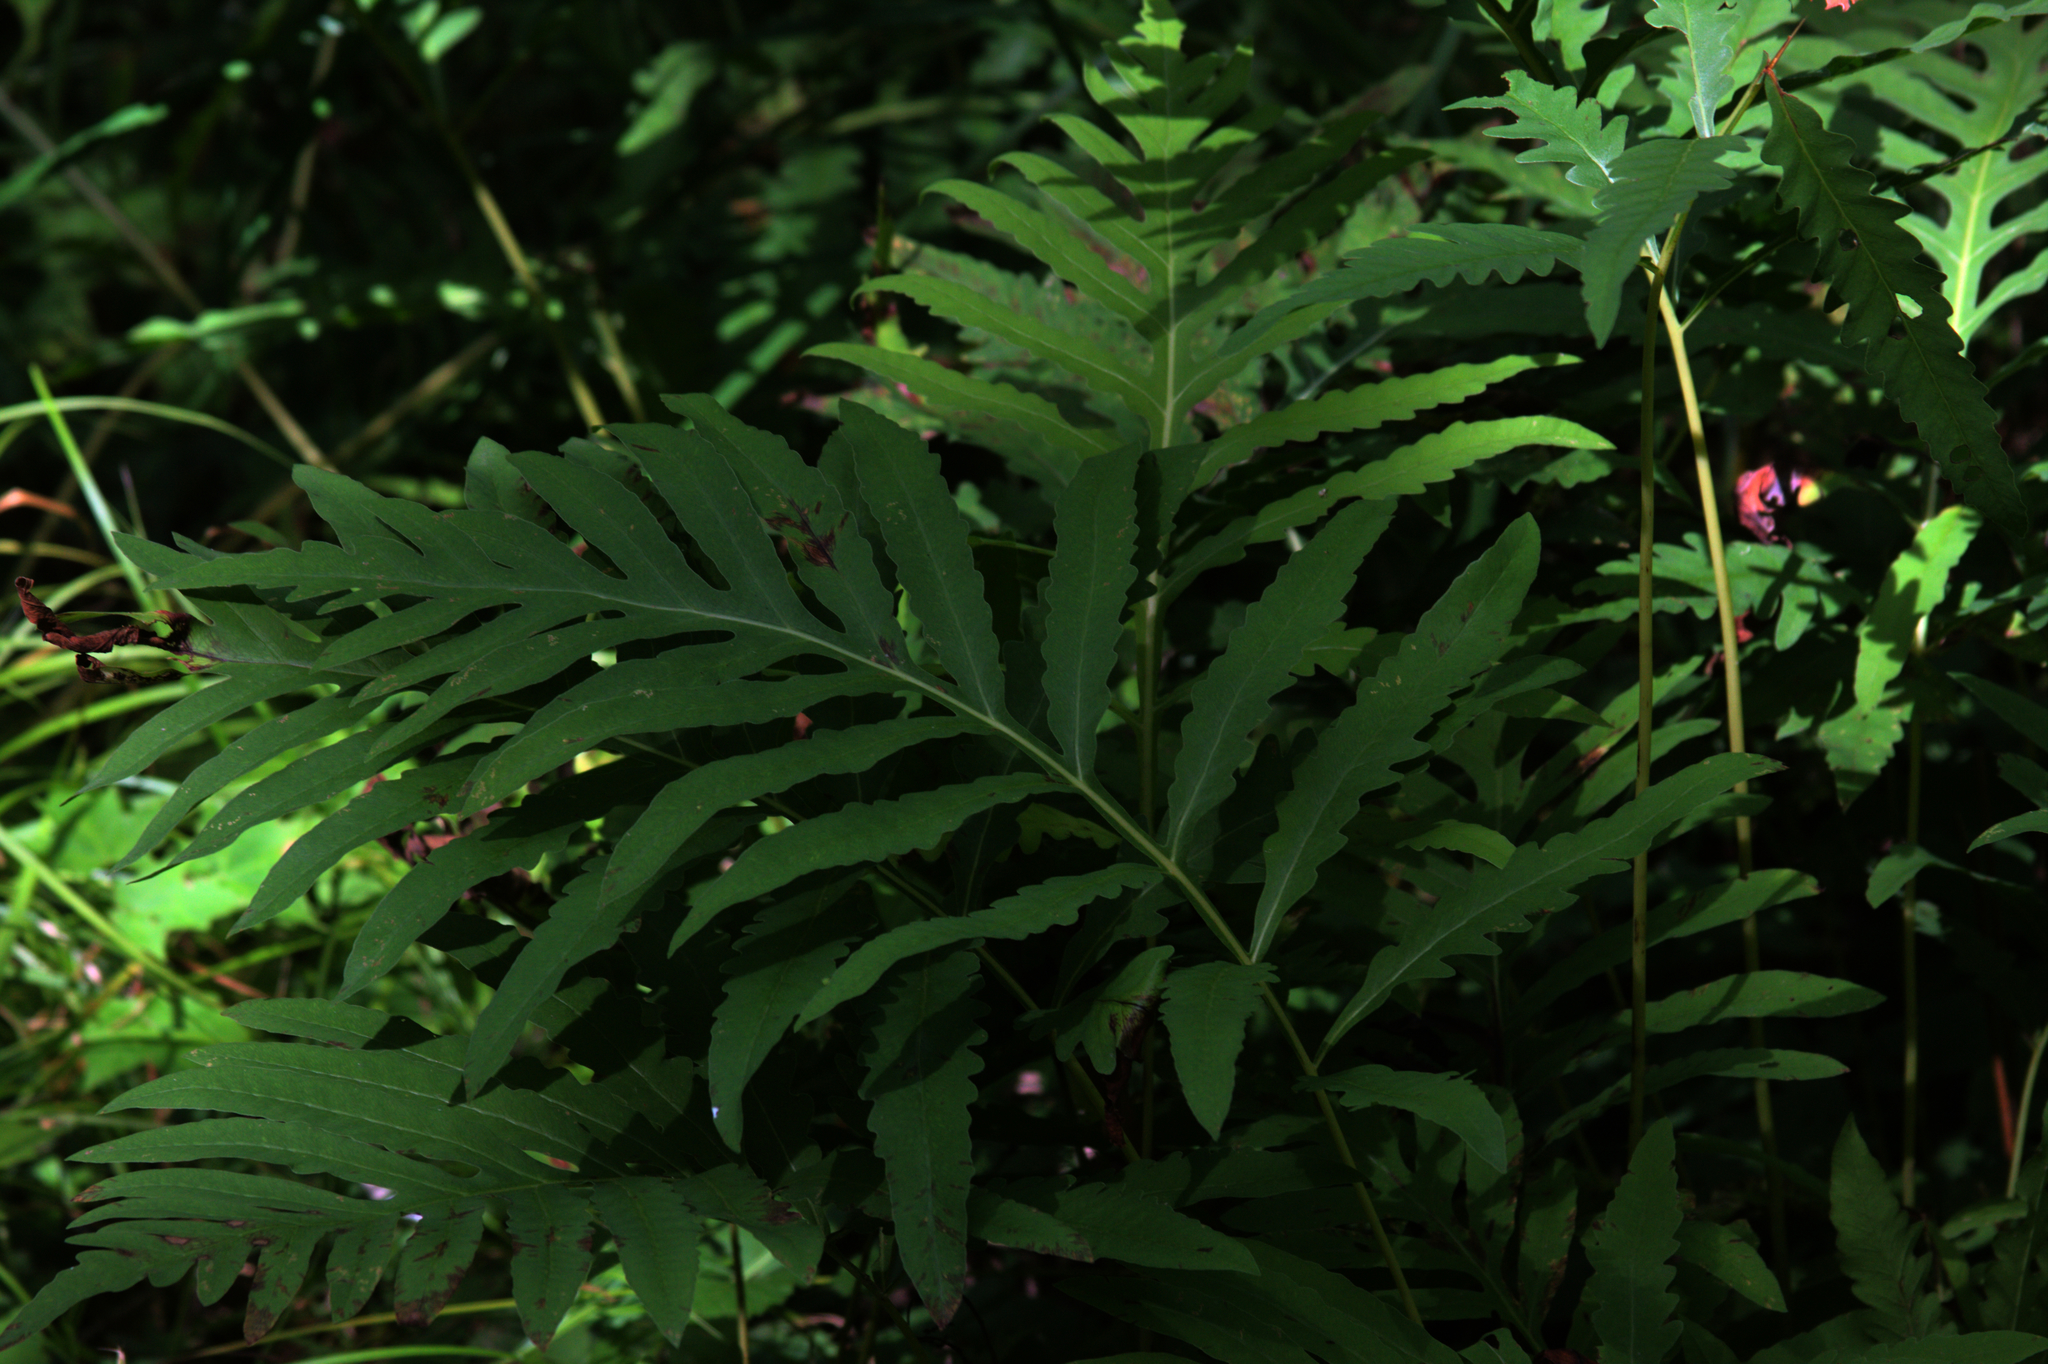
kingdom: Plantae
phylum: Tracheophyta
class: Polypodiopsida
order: Polypodiales
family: Onocleaceae
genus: Onoclea
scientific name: Onoclea sensibilis
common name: Sensitive fern
